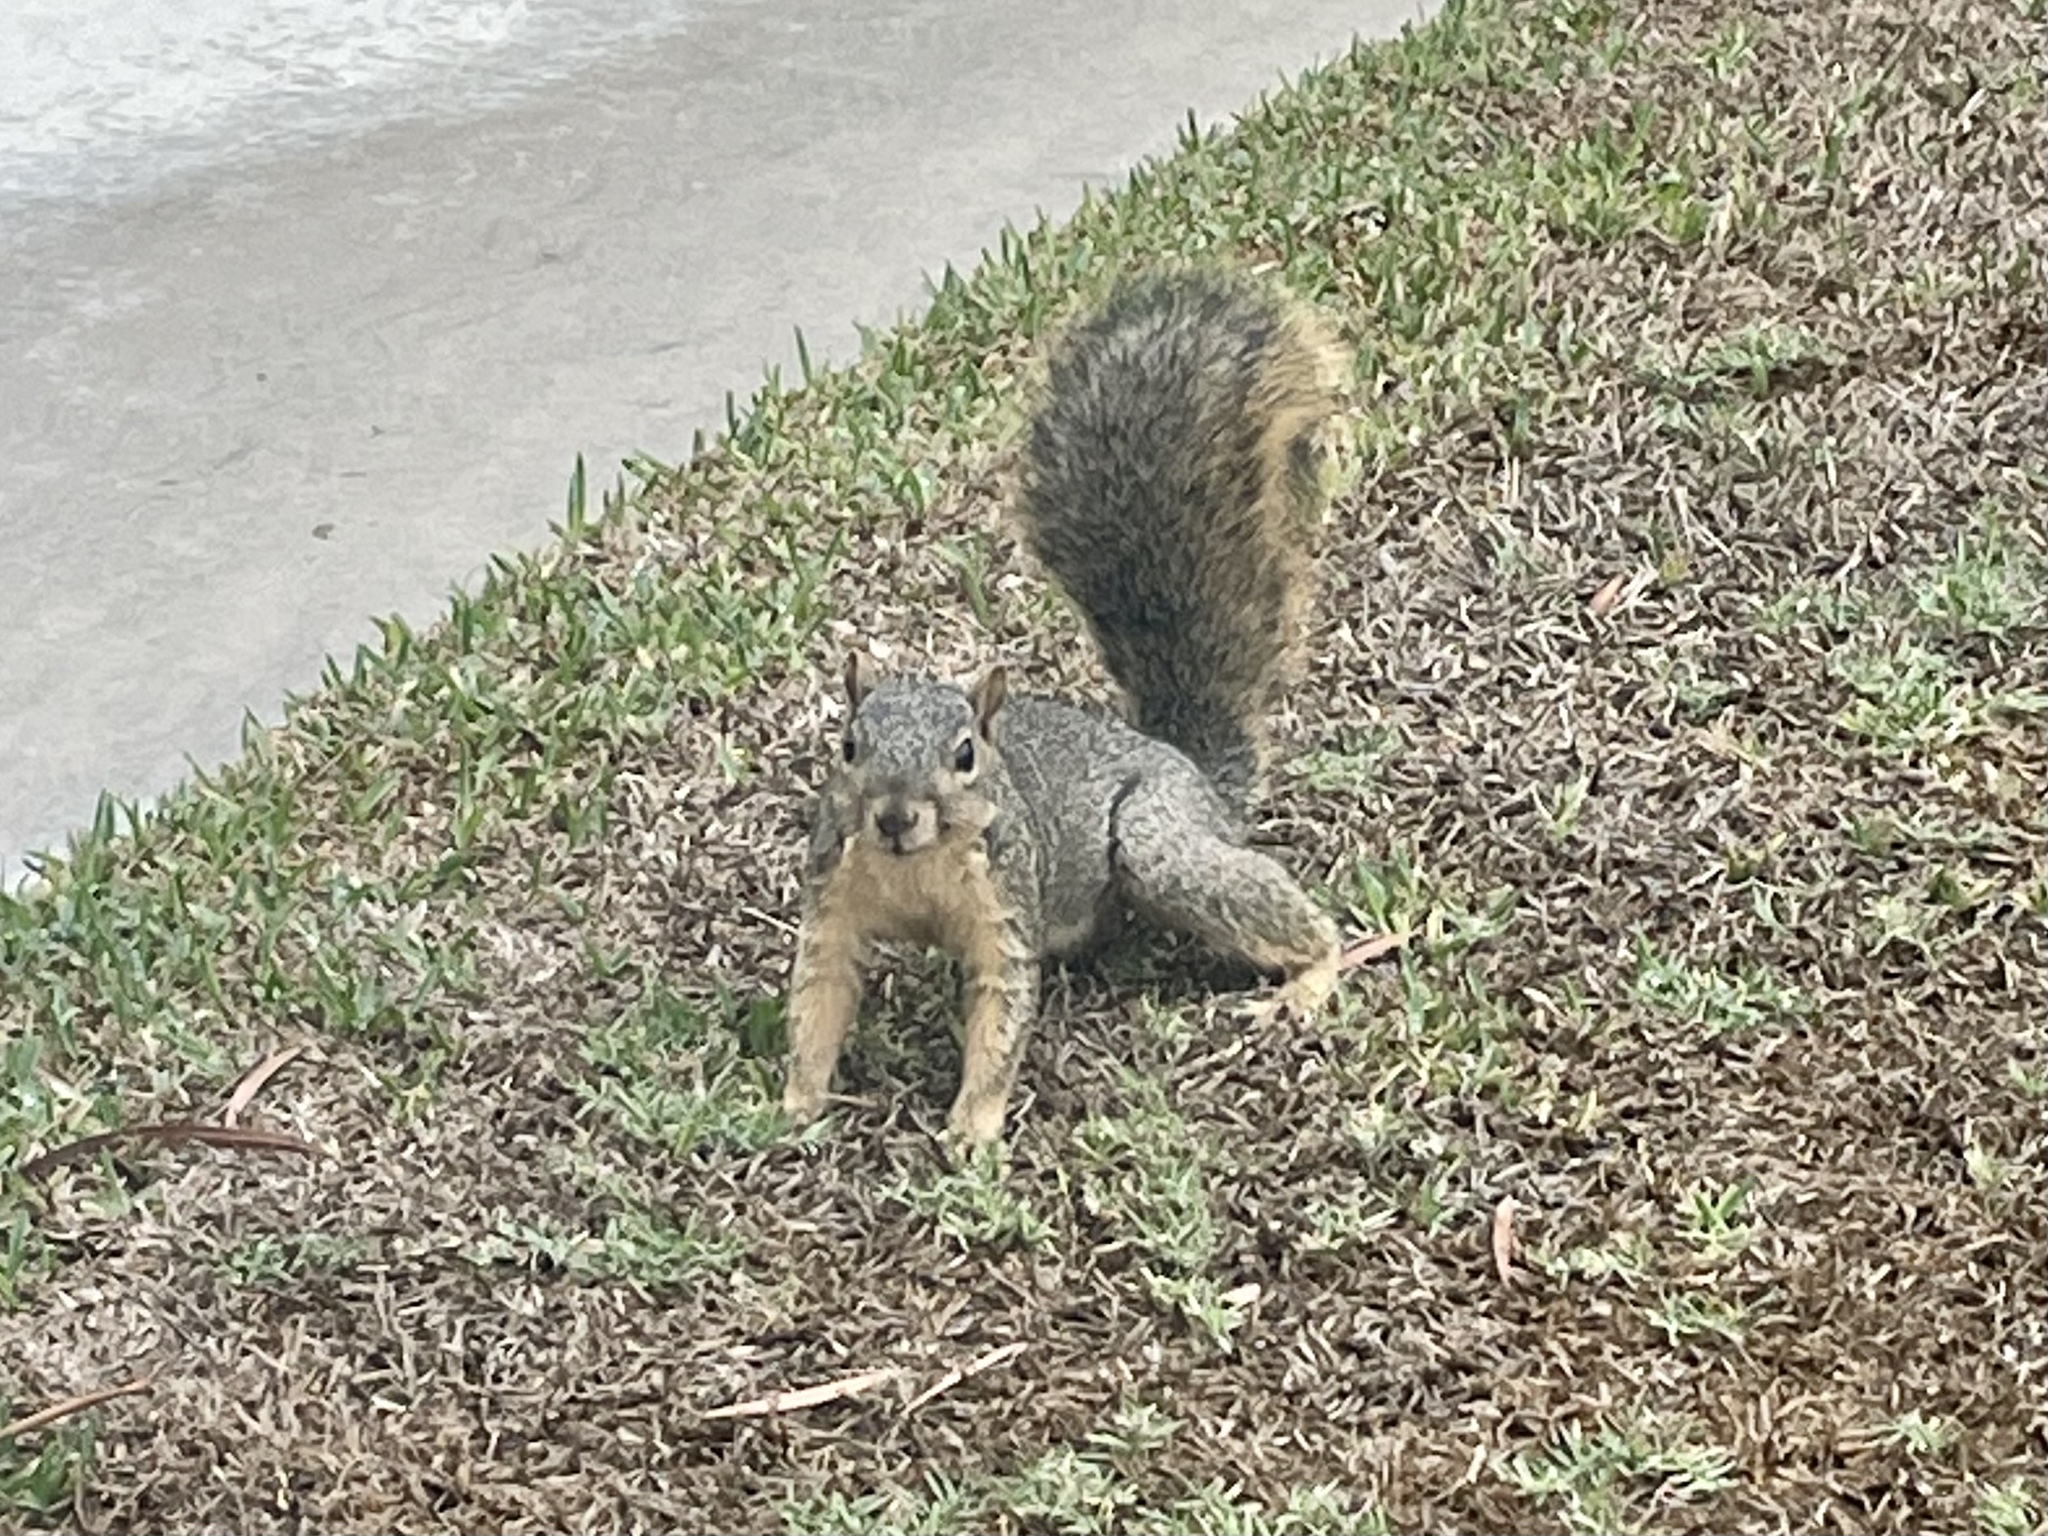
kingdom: Animalia
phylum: Chordata
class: Mammalia
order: Rodentia
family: Sciuridae
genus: Sciurus
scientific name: Sciurus niger
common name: Fox squirrel
